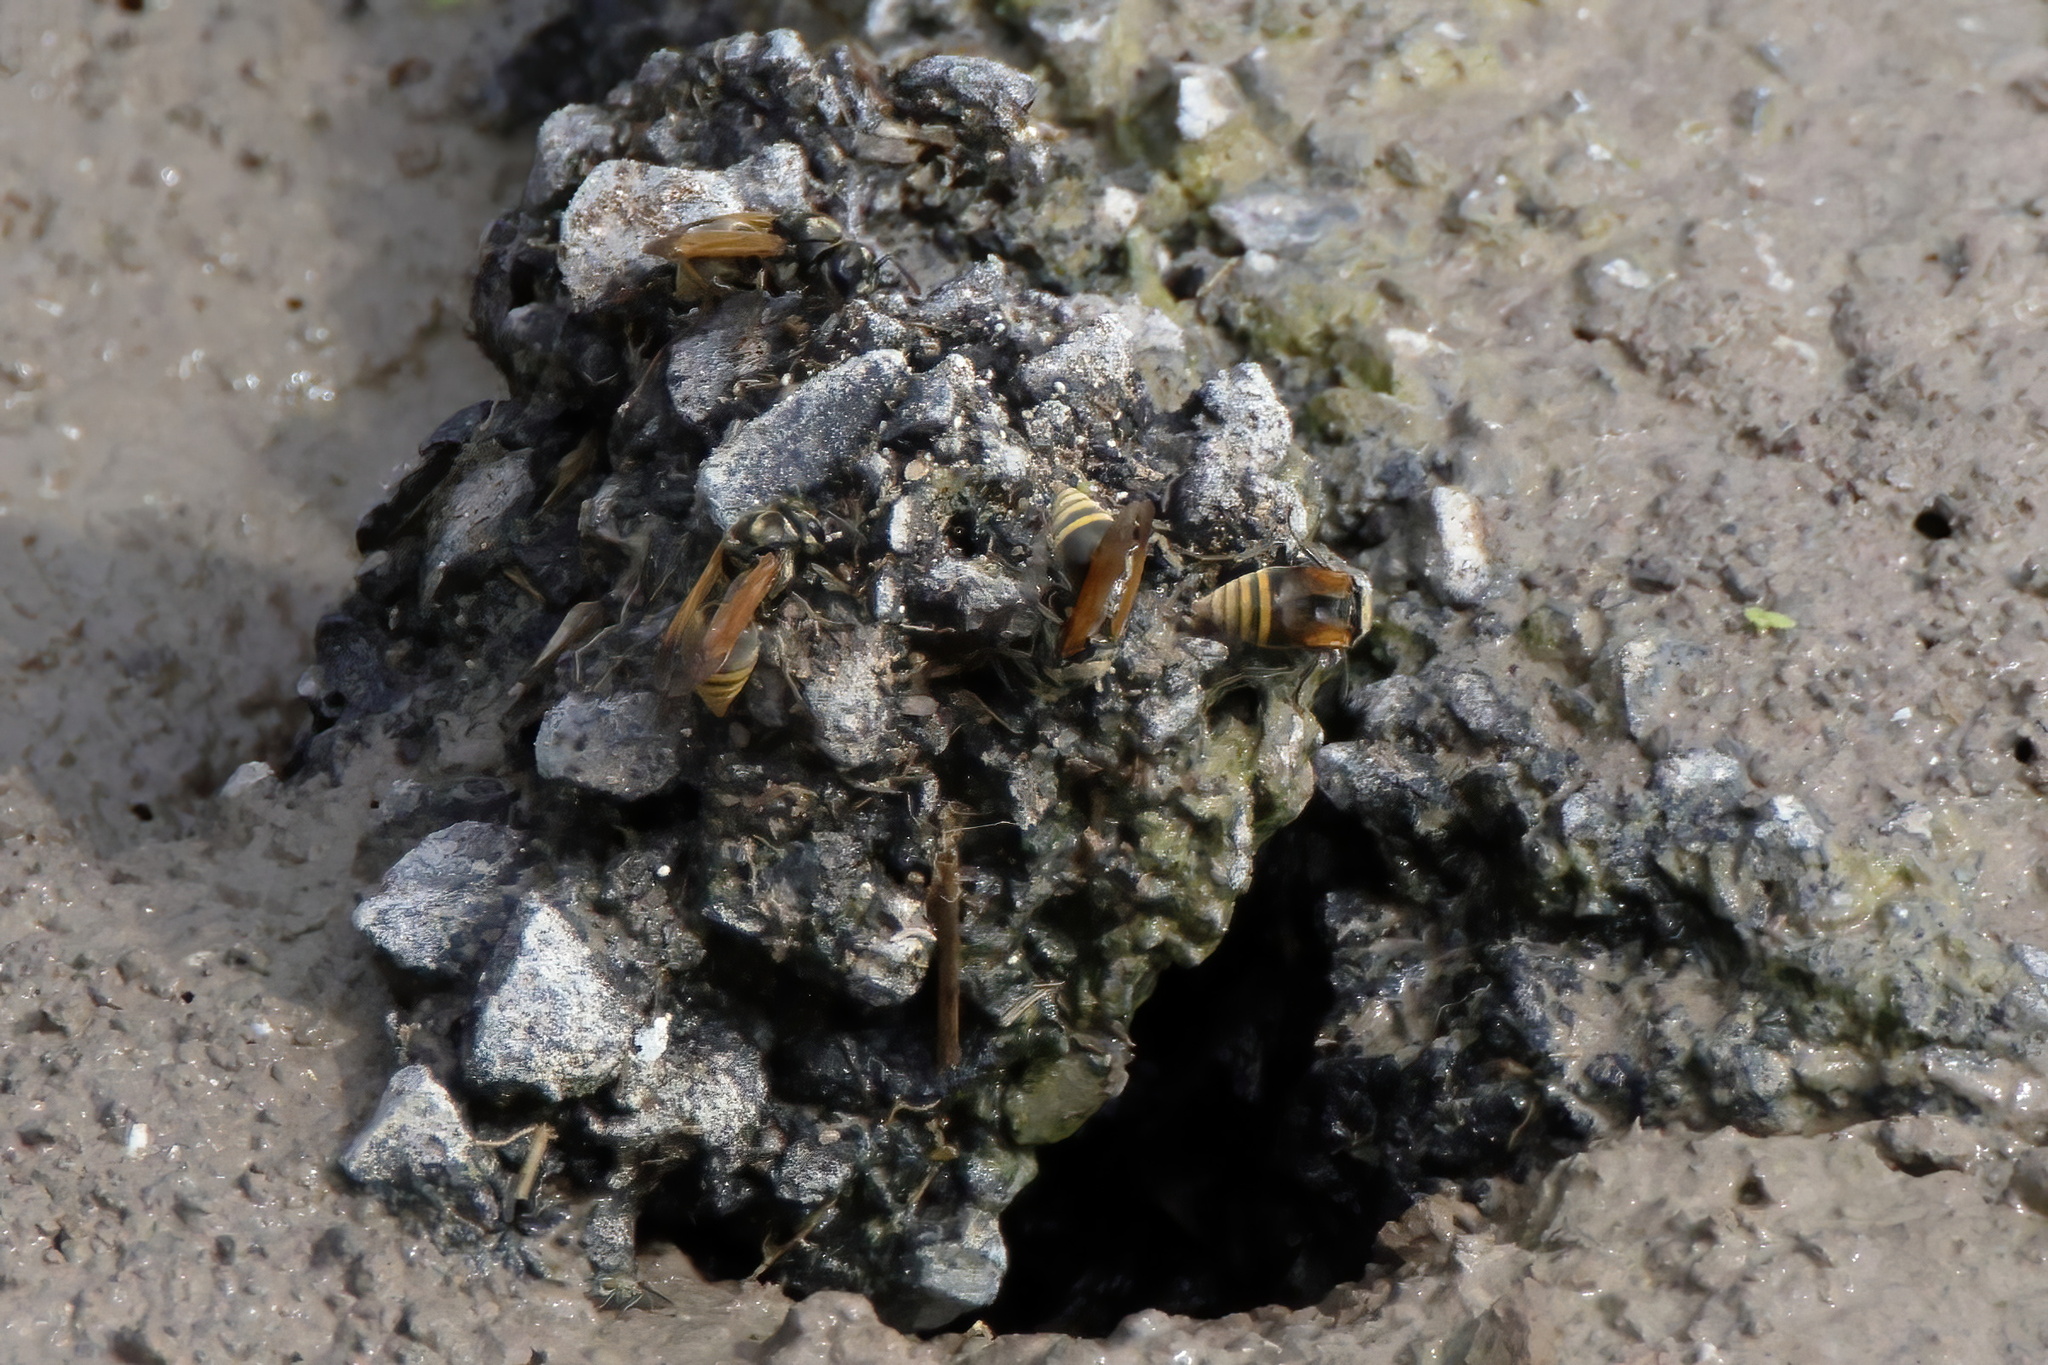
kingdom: Animalia
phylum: Arthropoda
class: Insecta
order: Hymenoptera
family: Vespidae
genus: Brachygastra
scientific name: Brachygastra mellifica
